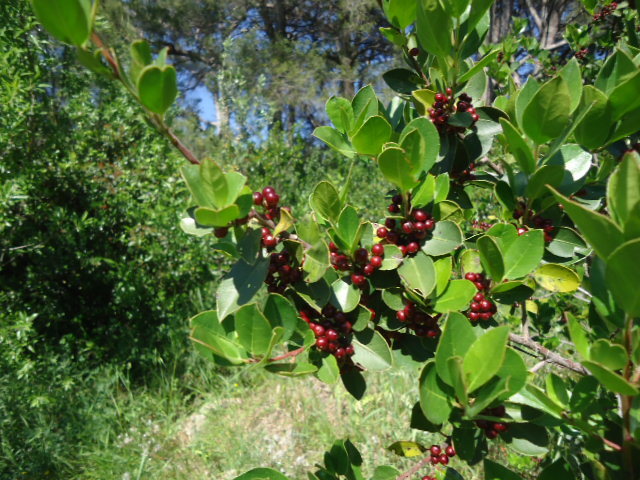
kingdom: Plantae
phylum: Tracheophyta
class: Magnoliopsida
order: Rosales
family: Rhamnaceae
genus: Rhamnus
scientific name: Rhamnus alaternus
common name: Mediterranean buckthorn
